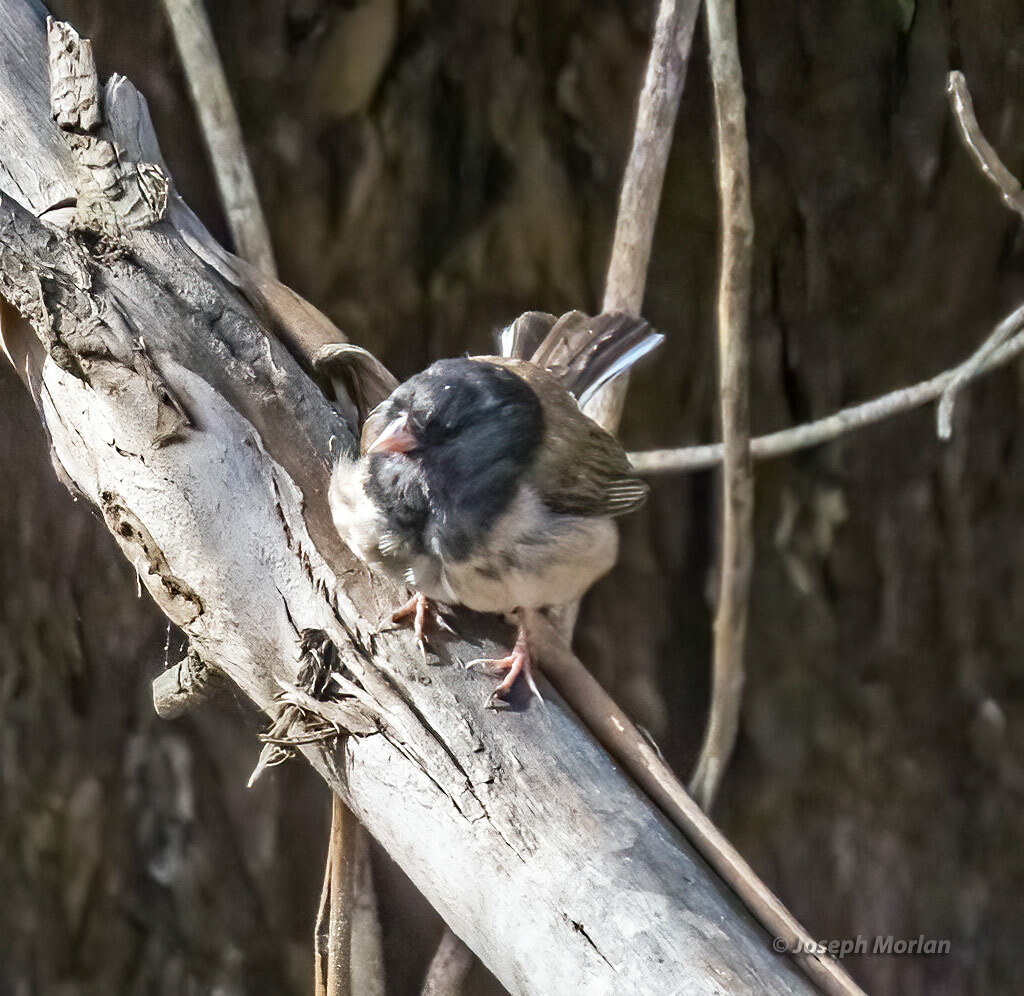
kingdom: Animalia
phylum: Chordata
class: Aves
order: Passeriformes
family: Passerellidae
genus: Junco
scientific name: Junco hyemalis
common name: Dark-eyed junco
